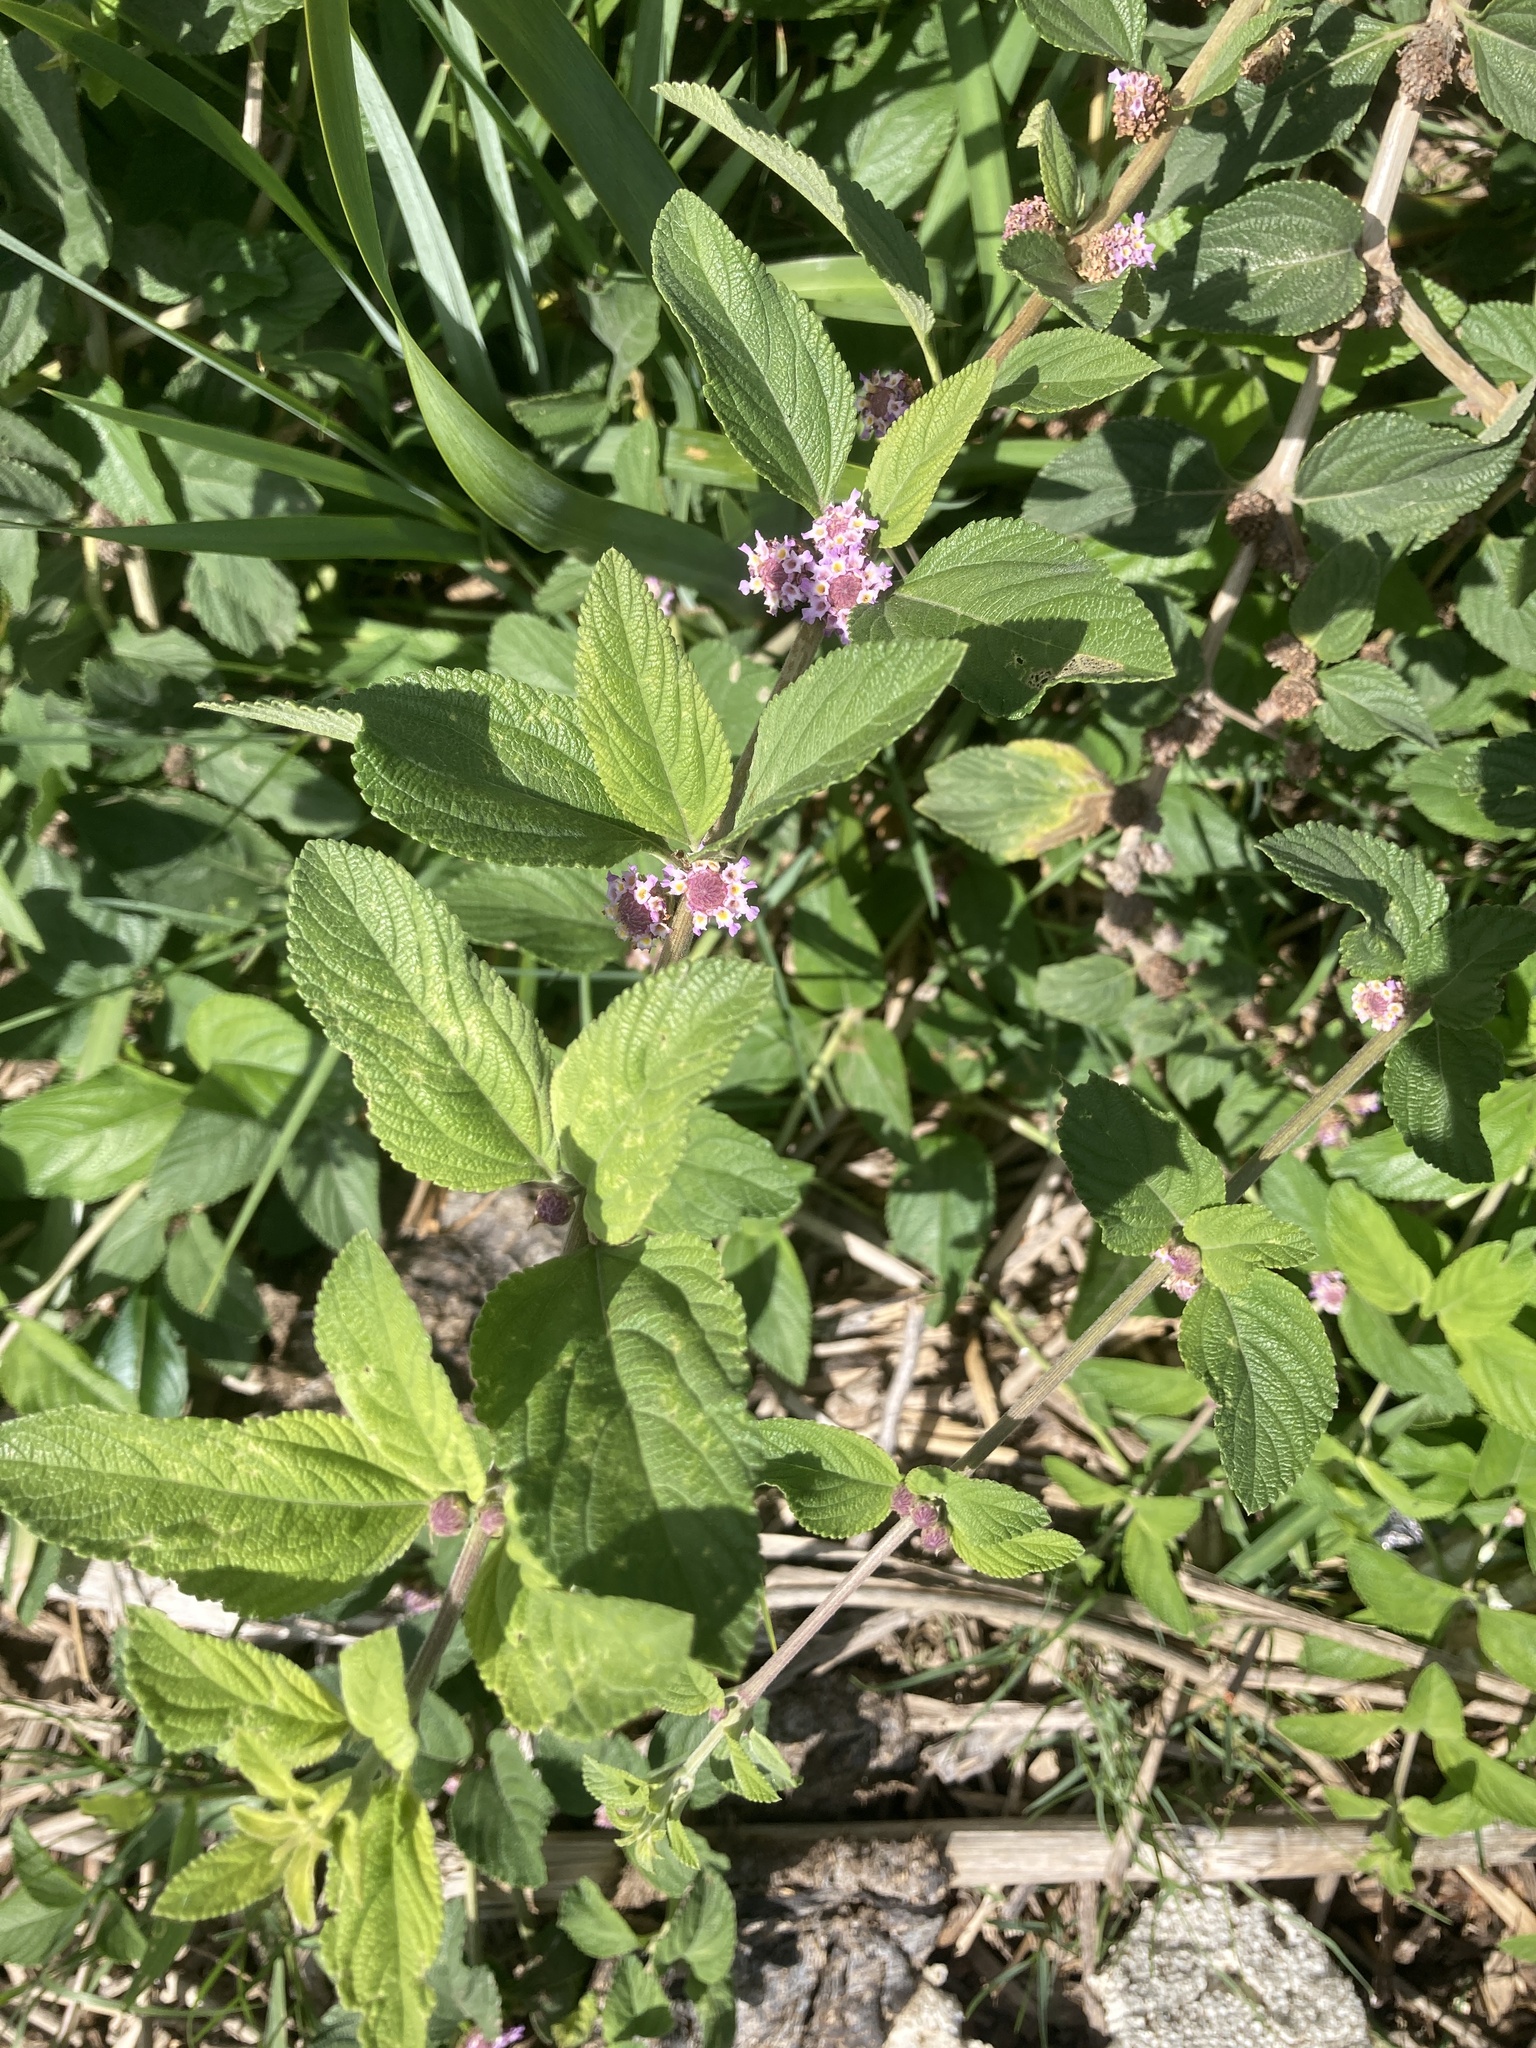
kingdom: Plantae
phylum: Tracheophyta
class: Magnoliopsida
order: Lamiales
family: Verbenaceae
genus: Lippia
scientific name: Lippia alba
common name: Bushy matgrass
